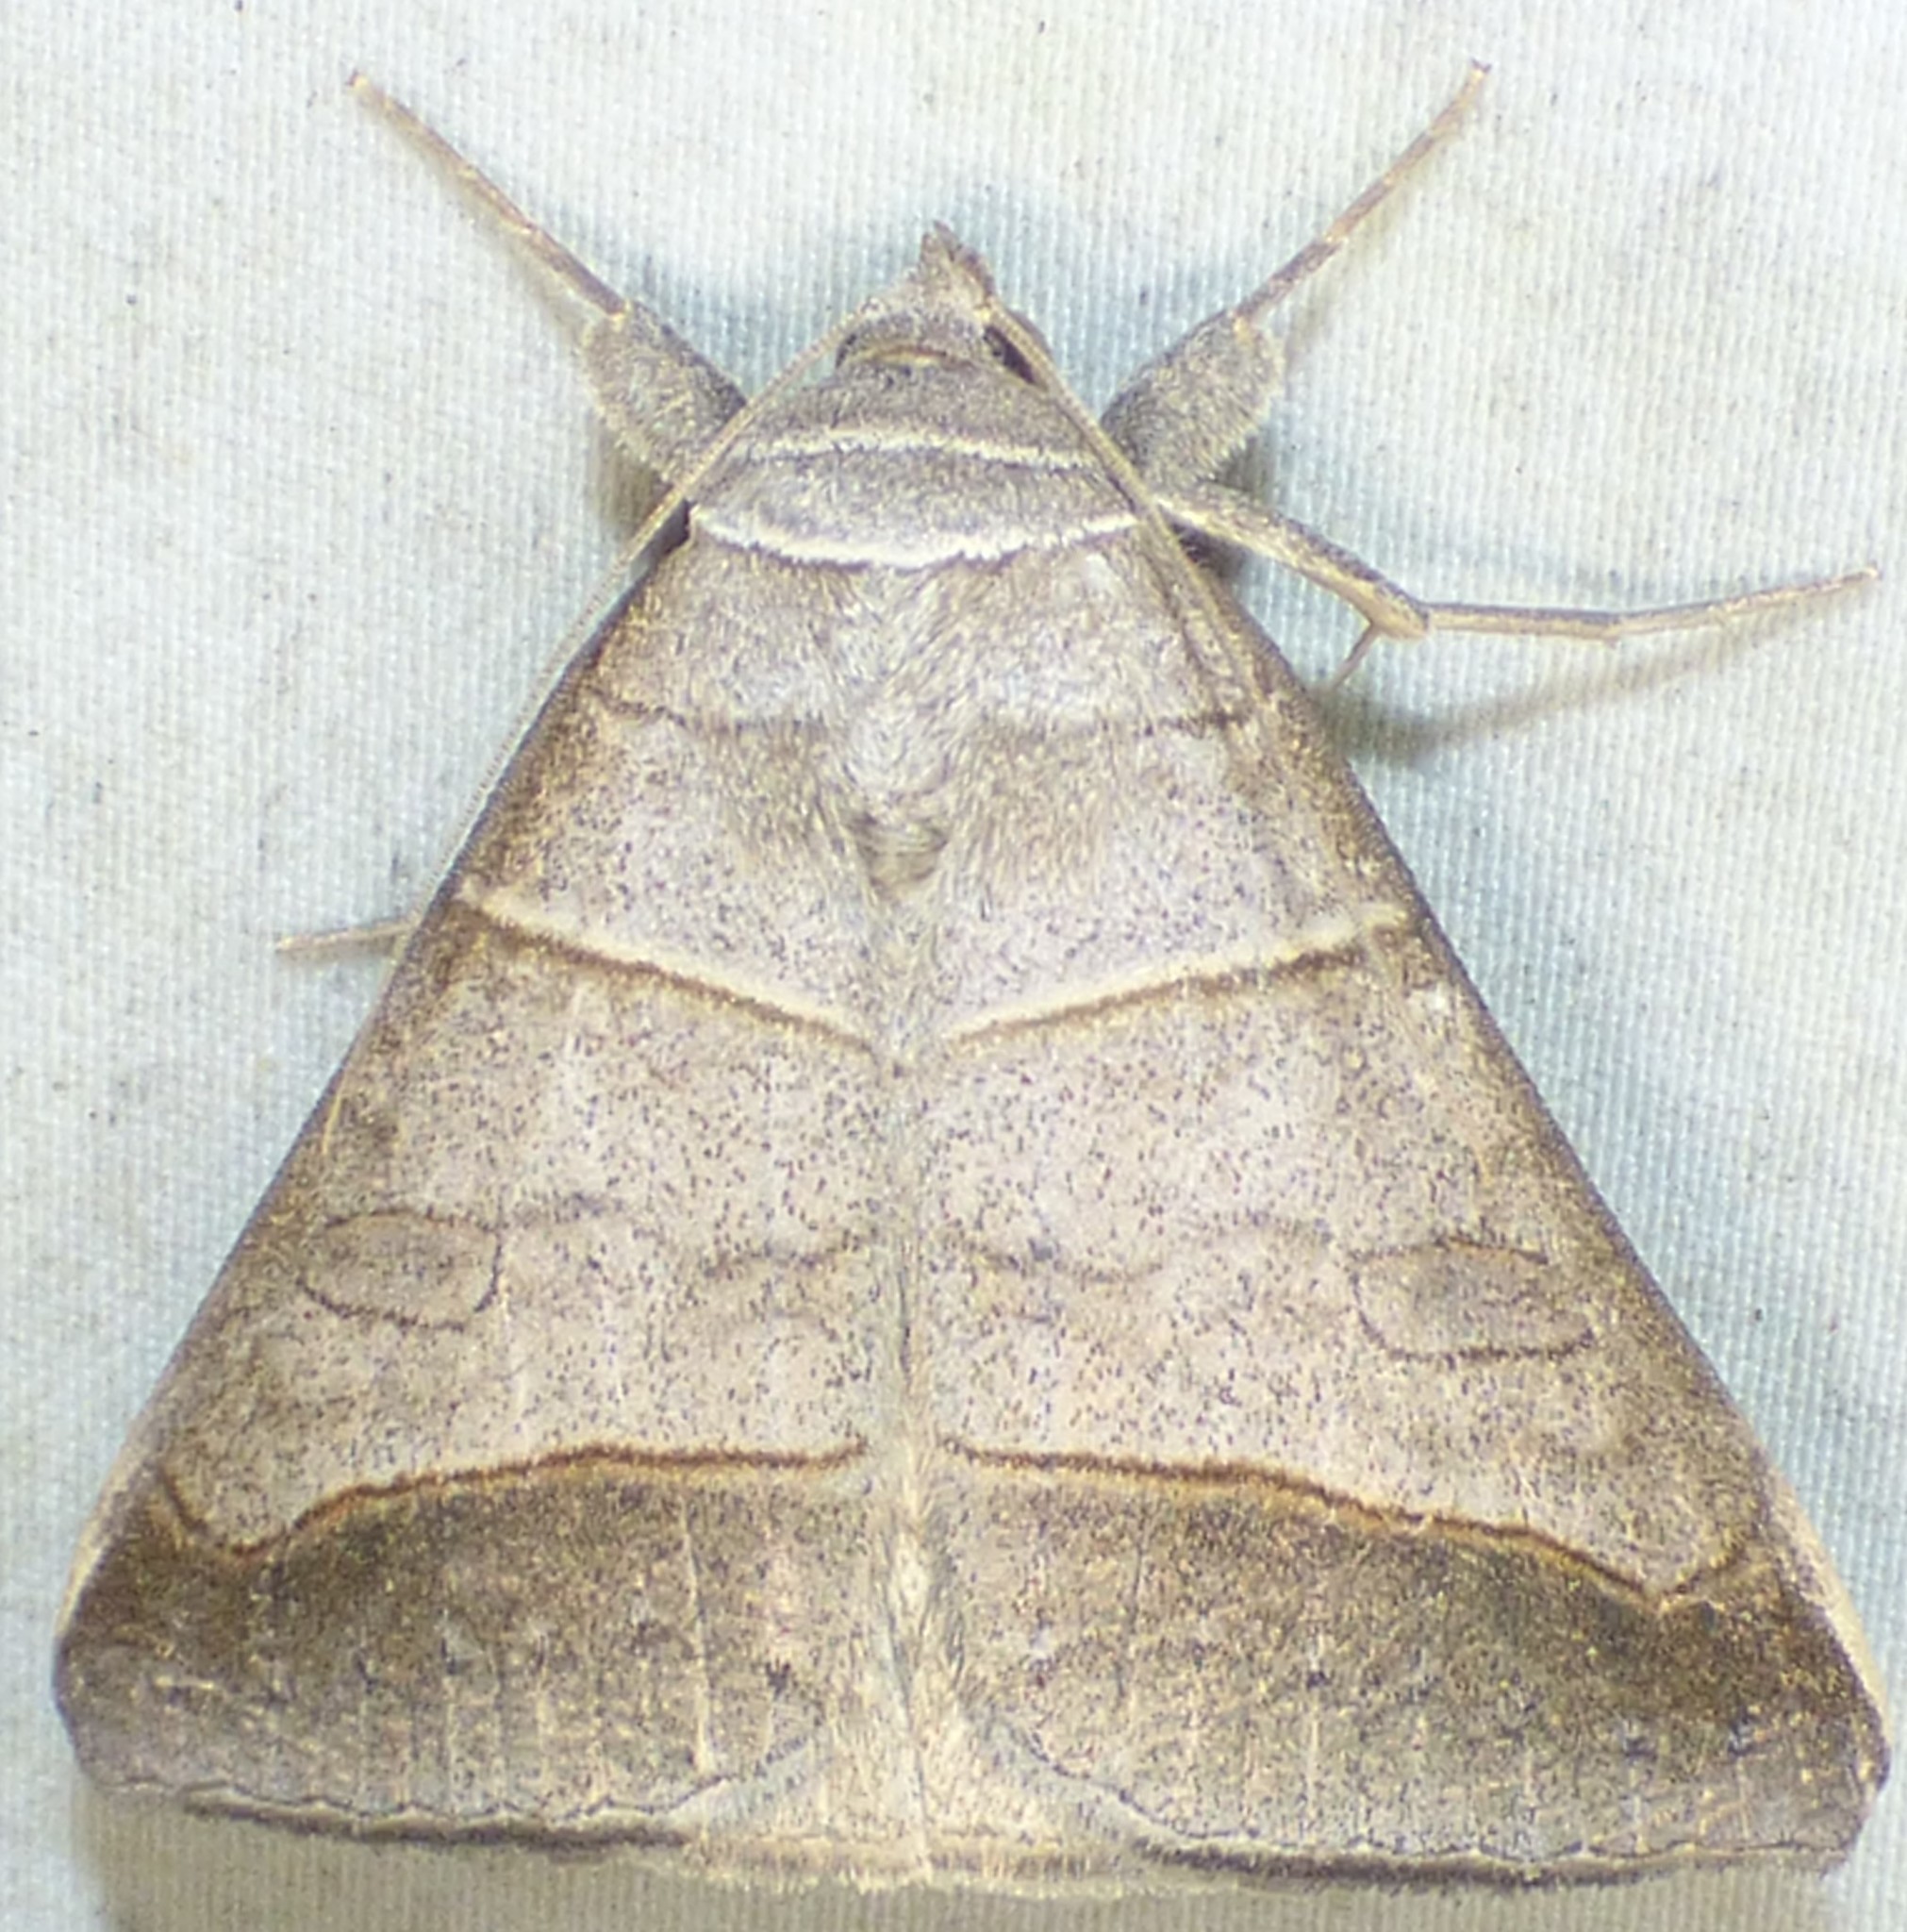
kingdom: Animalia
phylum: Arthropoda
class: Insecta
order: Lepidoptera
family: Erebidae
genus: Mocis
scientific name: Mocis texana
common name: Texas mocis moth
